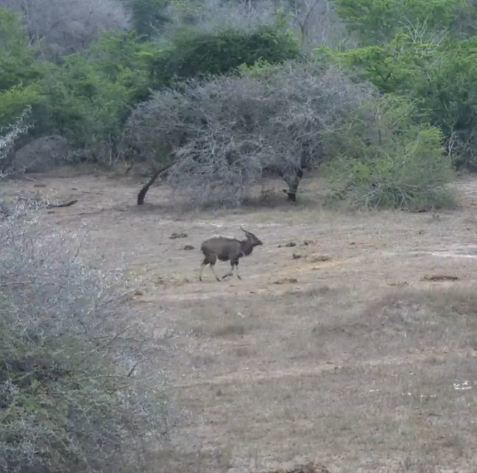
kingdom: Animalia
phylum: Chordata
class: Mammalia
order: Artiodactyla
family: Bovidae
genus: Tragelaphus
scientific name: Tragelaphus angasii
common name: Nyala
